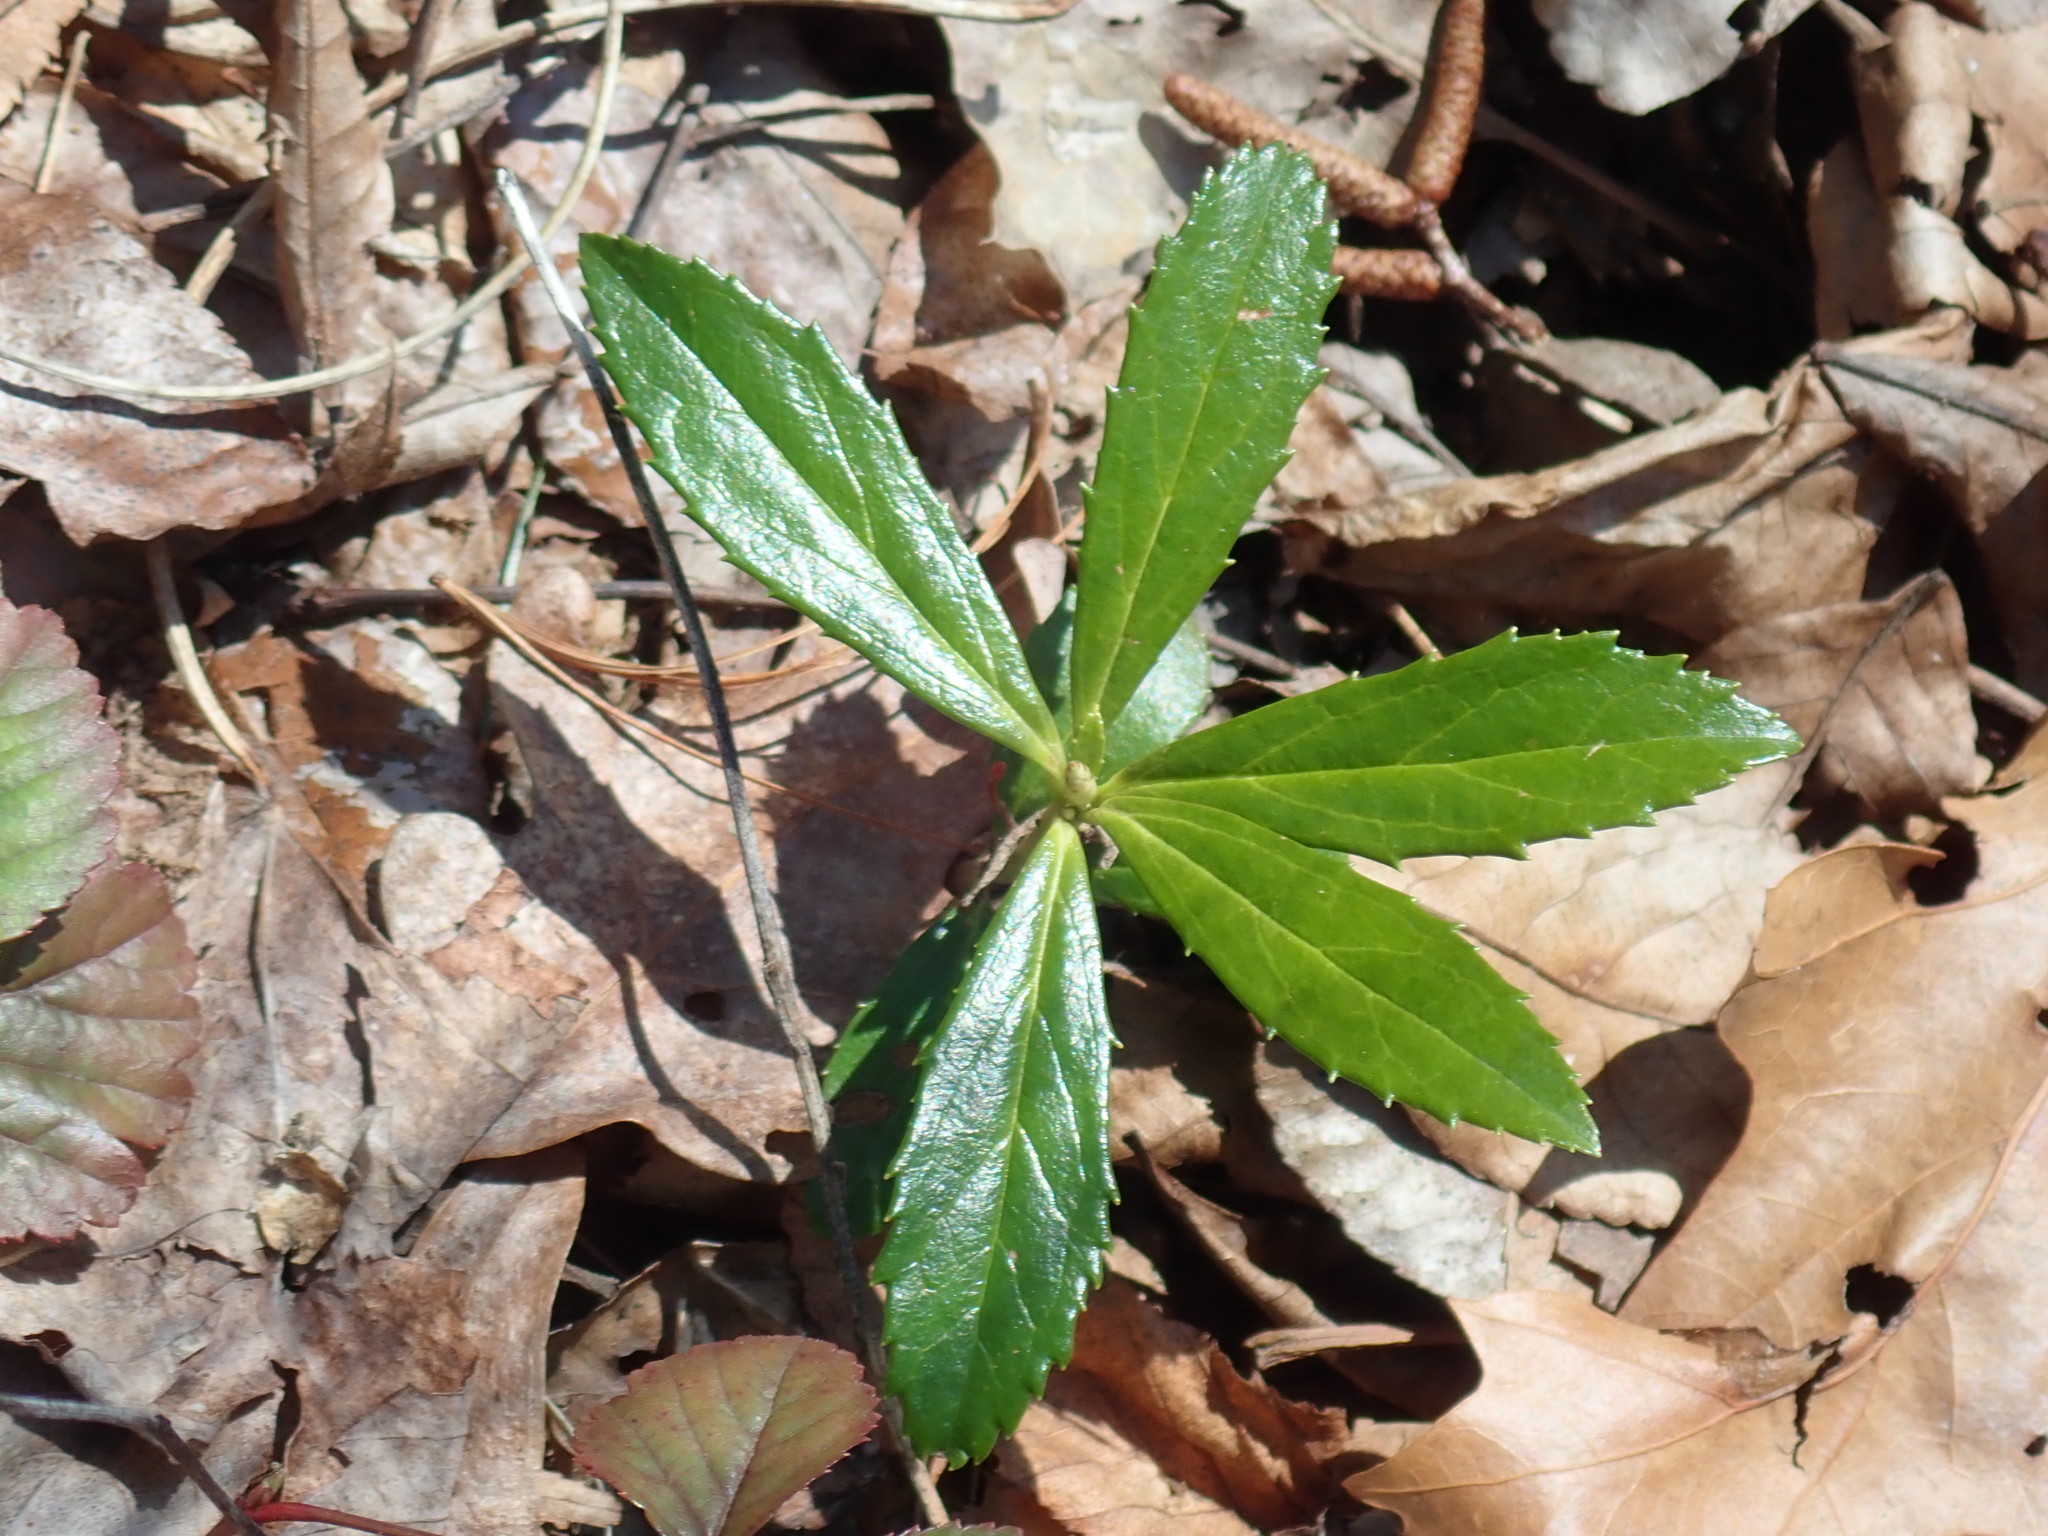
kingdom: Plantae
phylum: Tracheophyta
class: Magnoliopsida
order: Ericales
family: Ericaceae
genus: Chimaphila
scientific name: Chimaphila umbellata
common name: Pipsissewa
